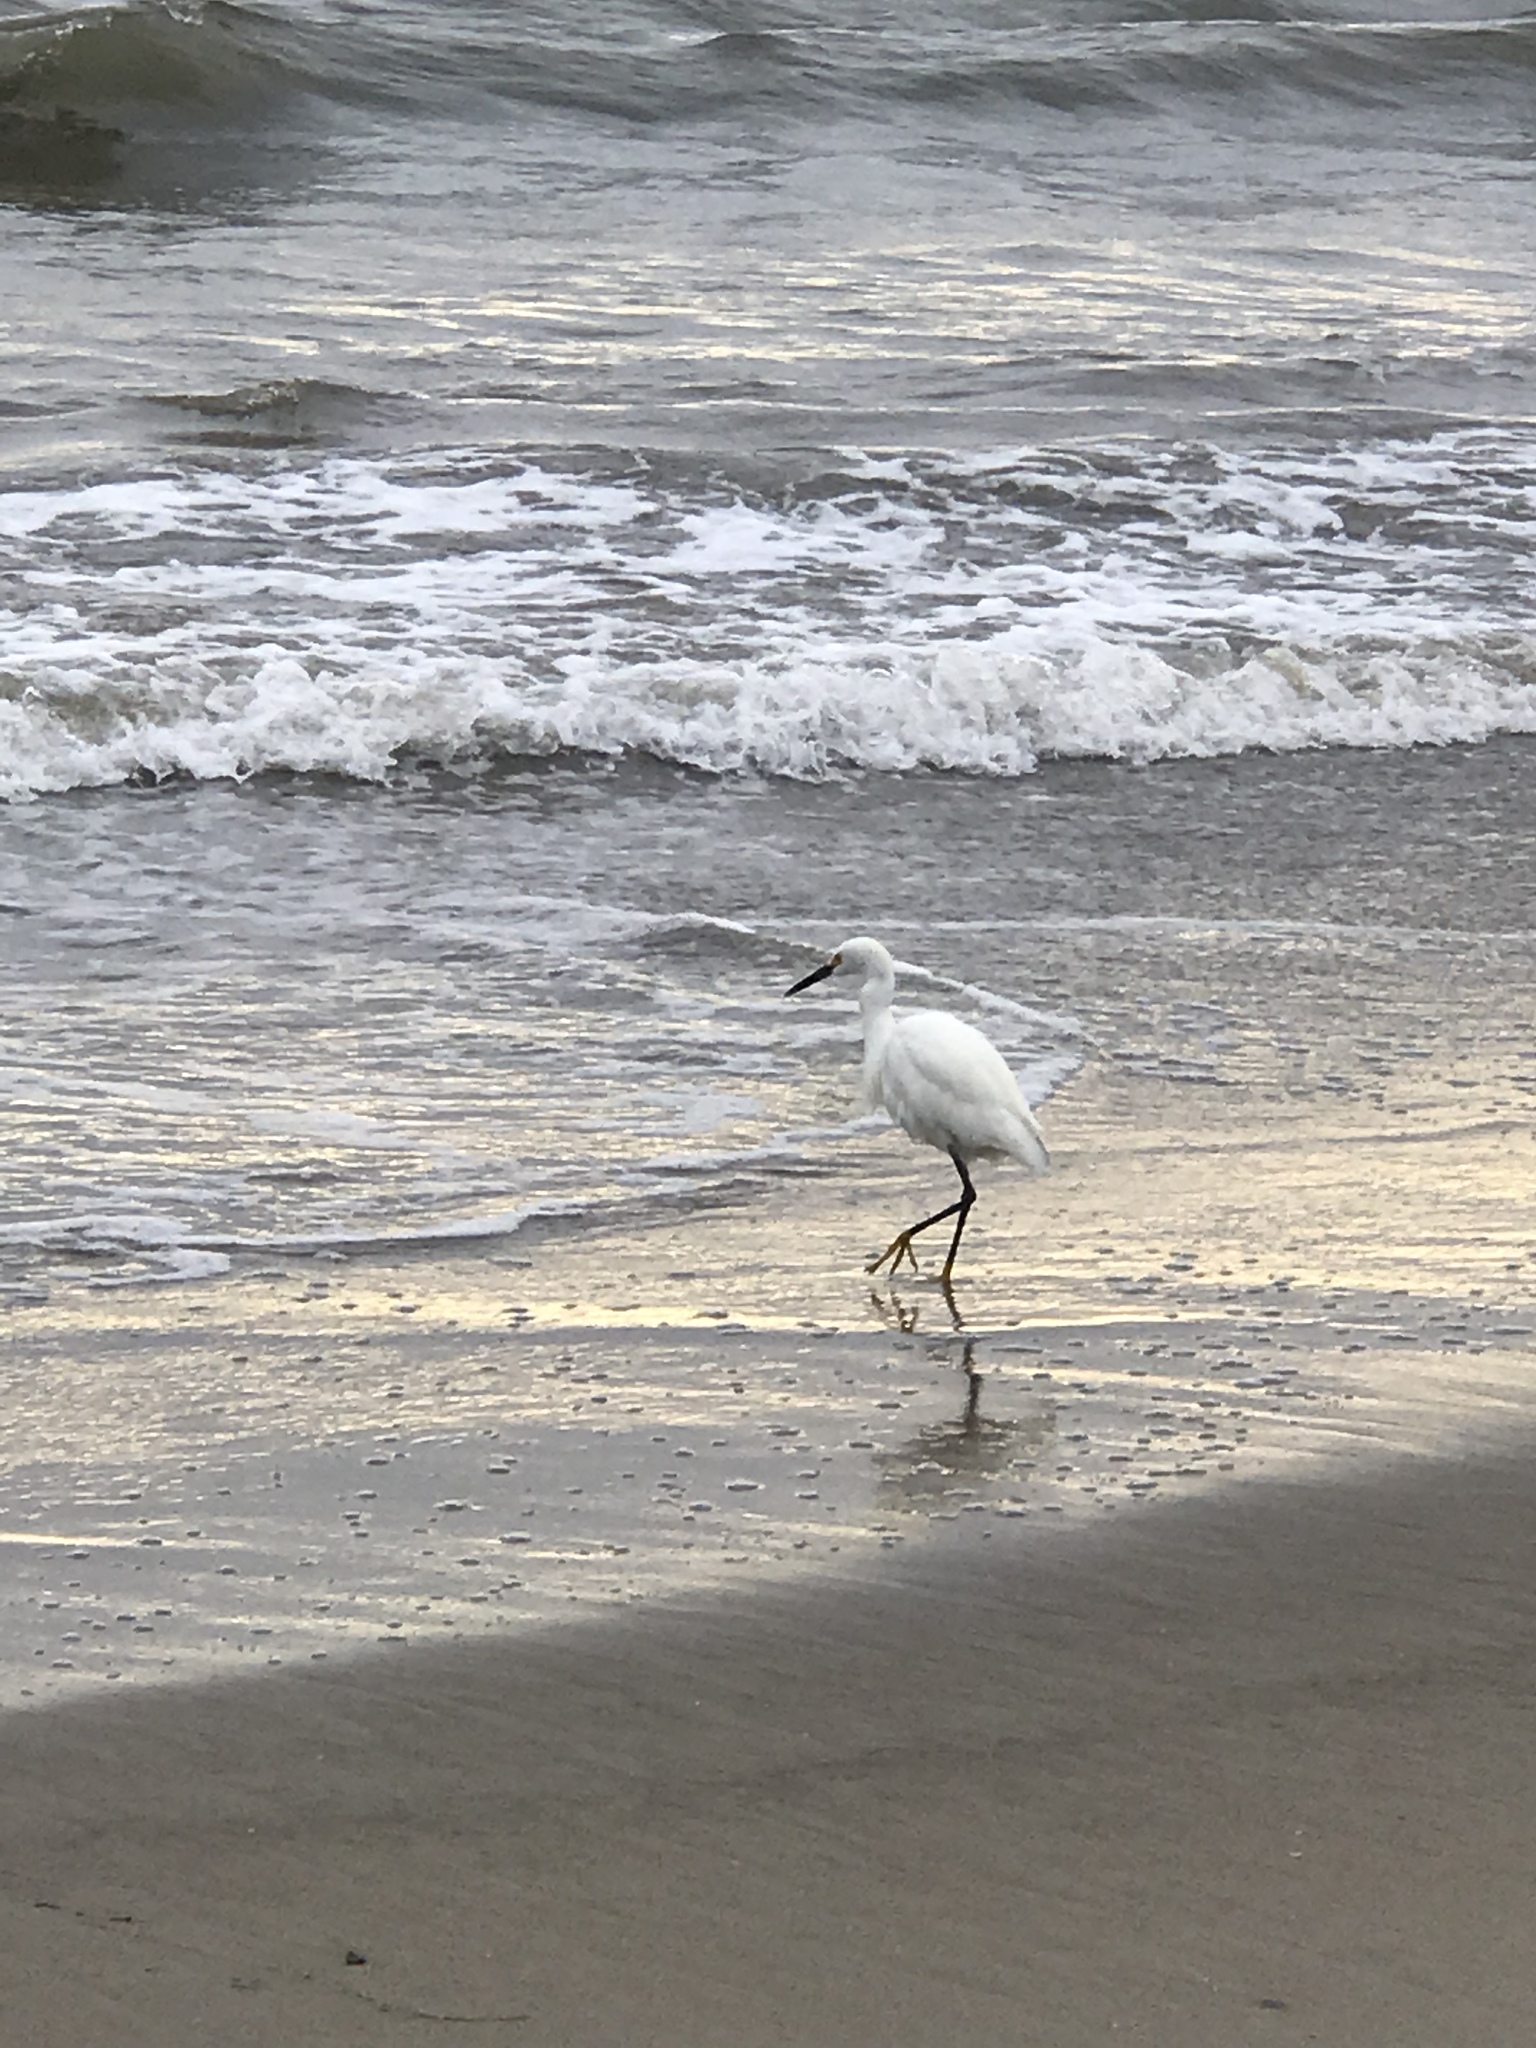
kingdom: Animalia
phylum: Chordata
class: Aves
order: Pelecaniformes
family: Ardeidae
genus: Egretta
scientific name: Egretta thula
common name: Snowy egret
